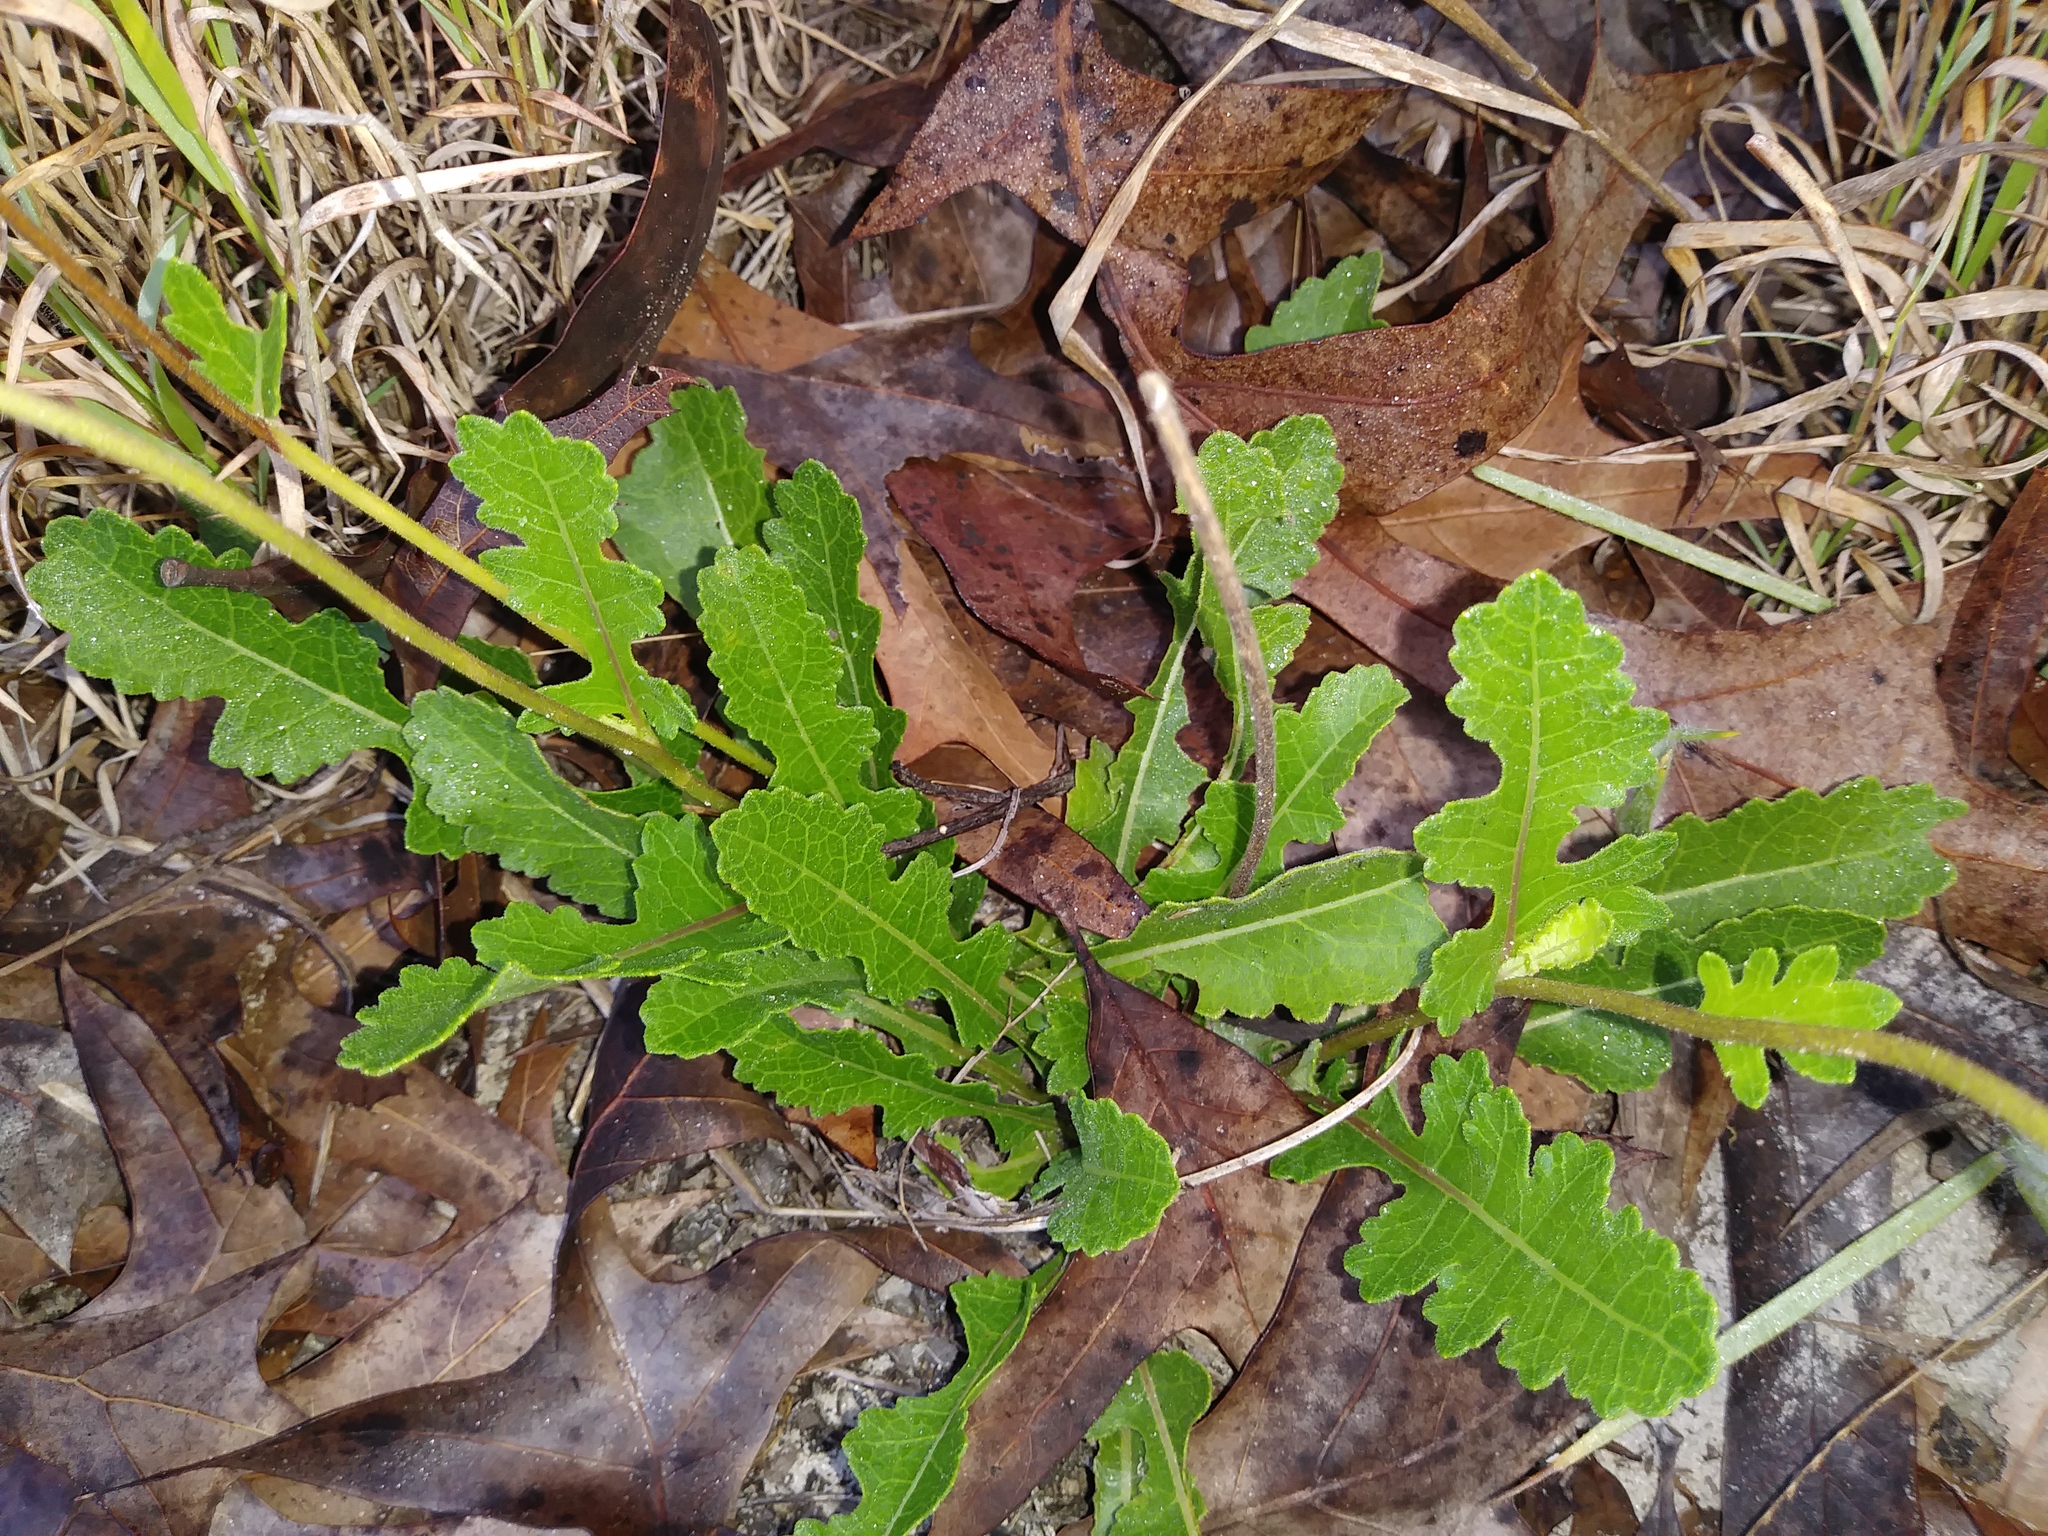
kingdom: Plantae
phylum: Tracheophyta
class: Magnoliopsida
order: Asterales
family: Asteraceae
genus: Berlandiera
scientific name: Berlandiera subacaulis
